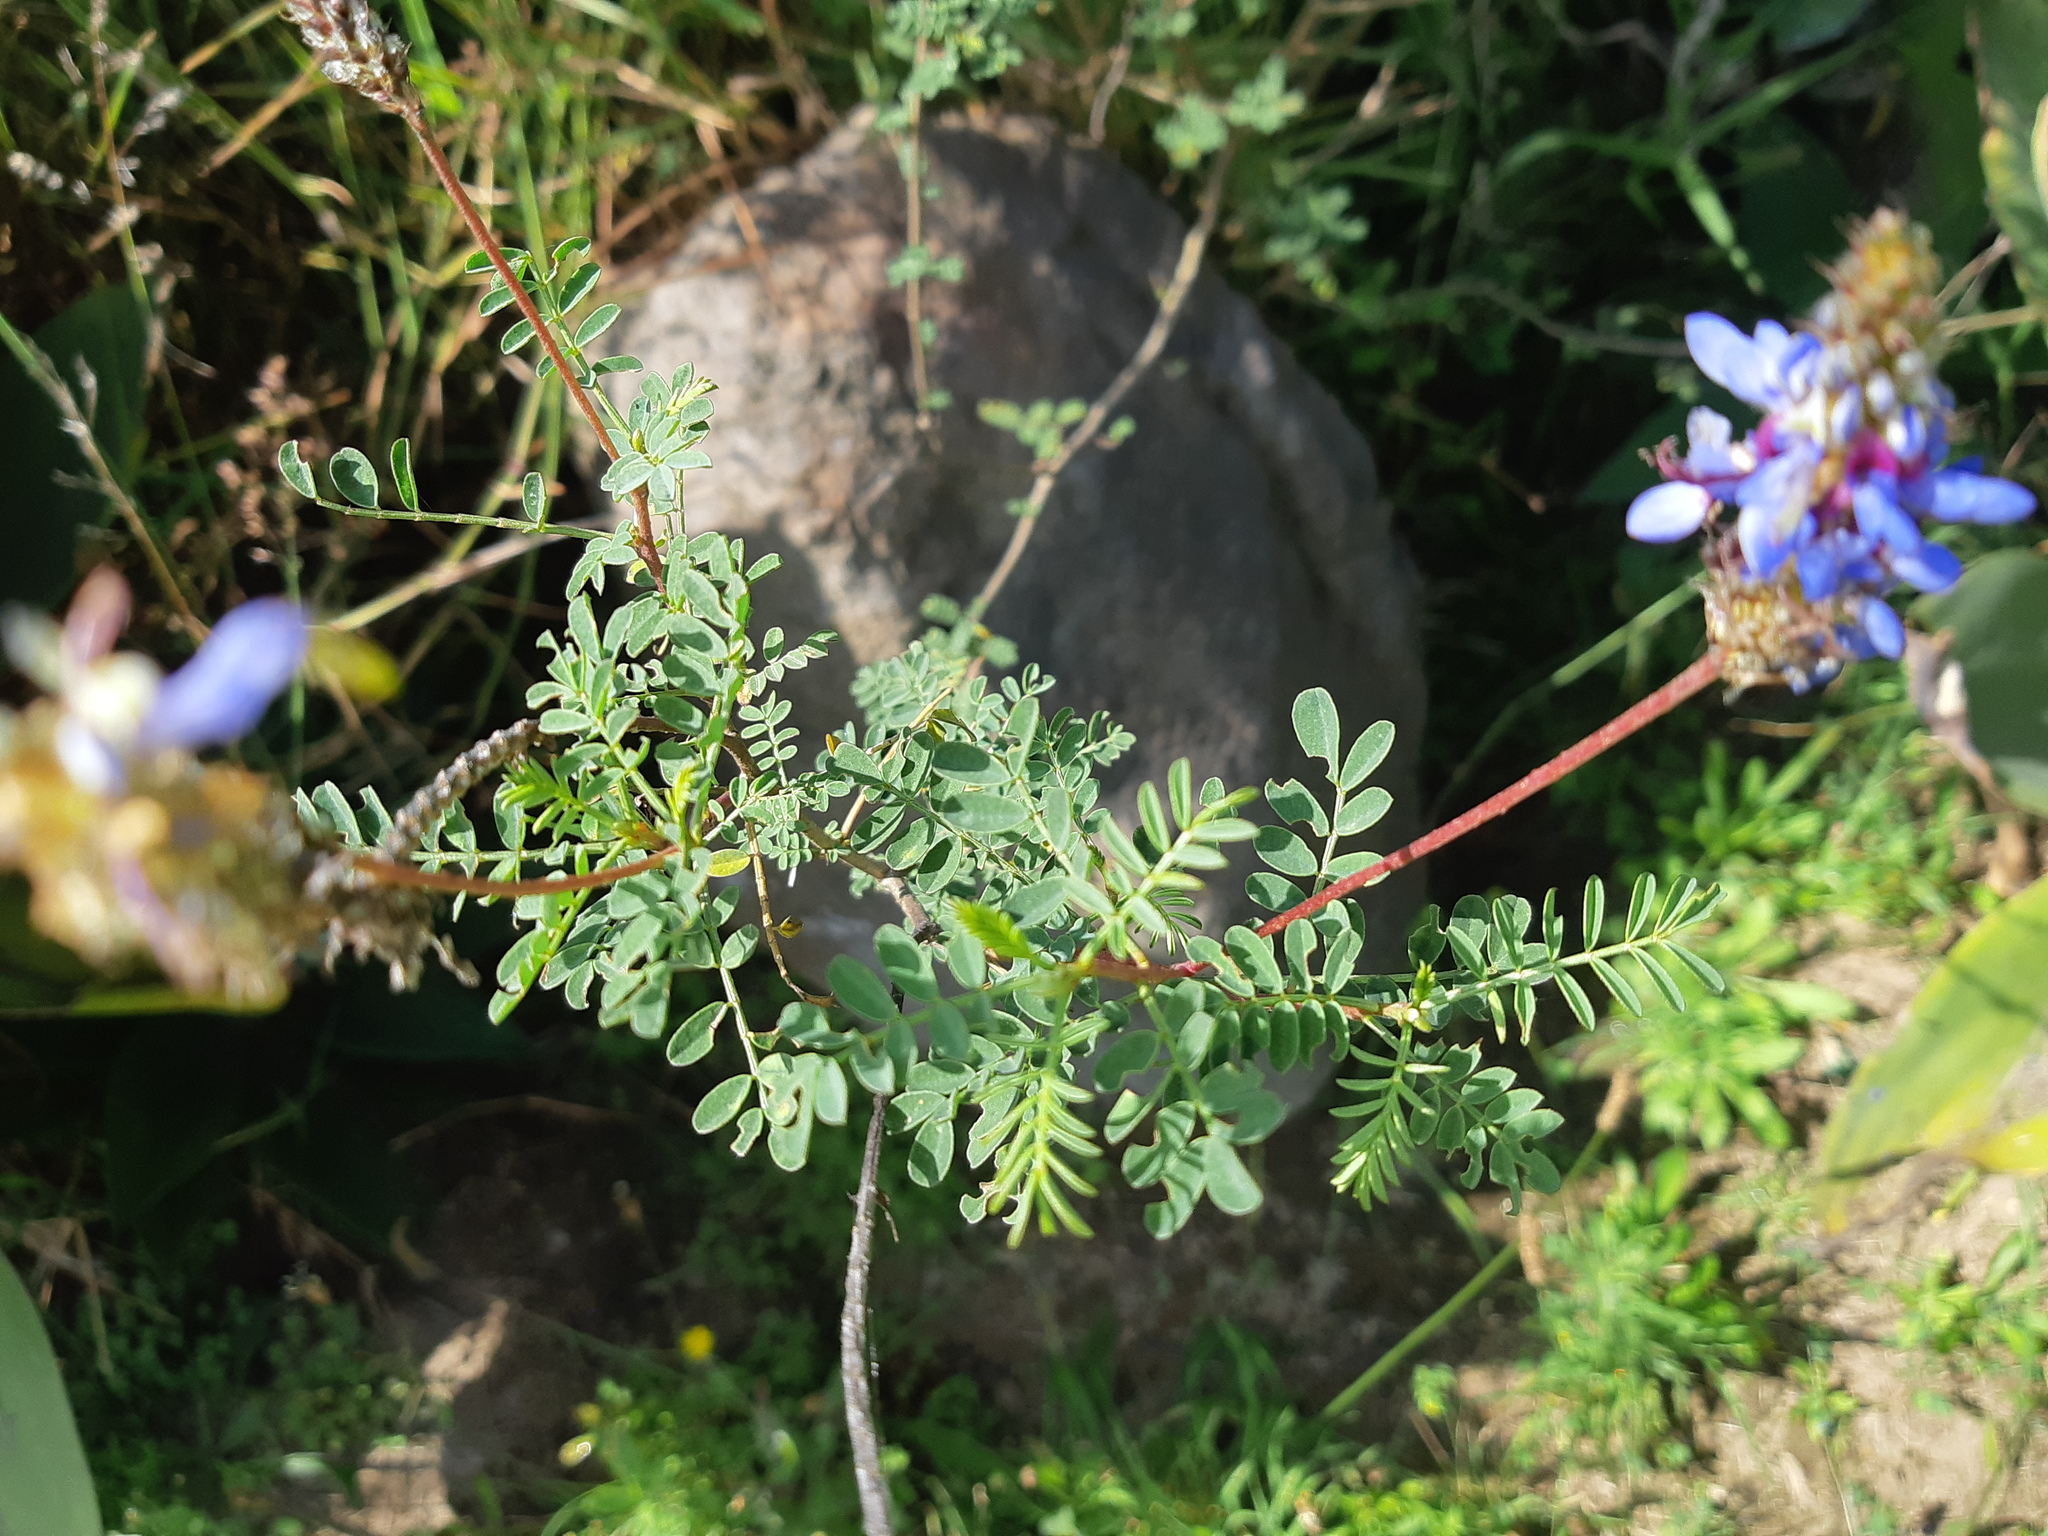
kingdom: Plantae
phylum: Tracheophyta
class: Magnoliopsida
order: Fabales
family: Fabaceae
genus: Dalea
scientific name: Dalea coerulea
